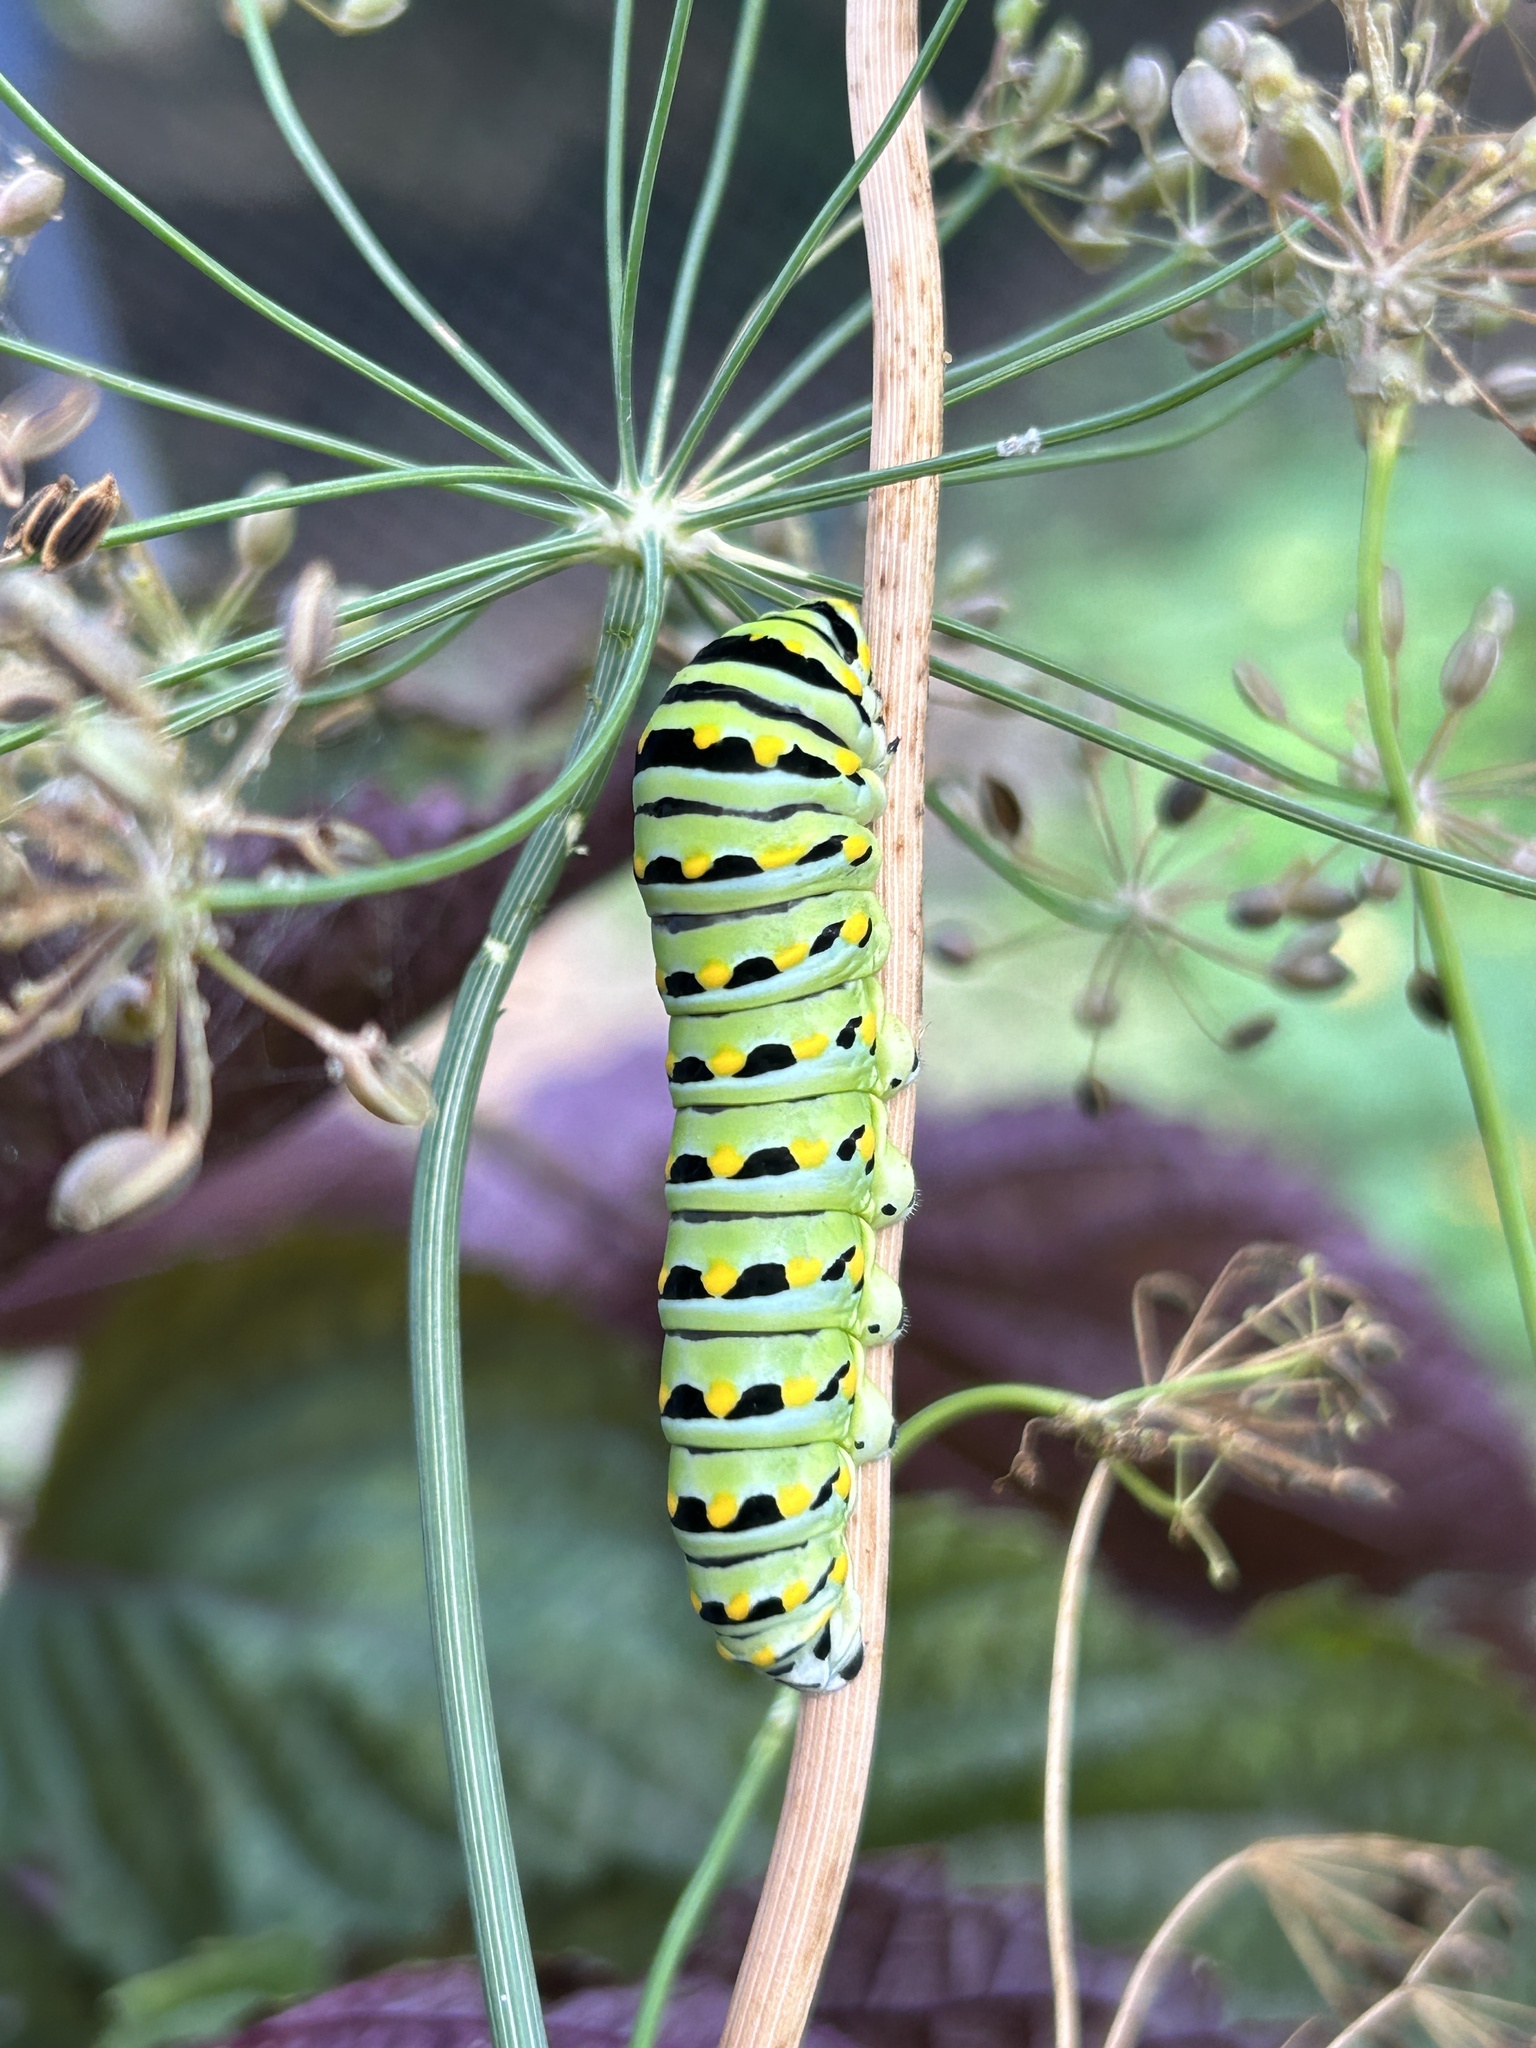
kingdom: Animalia
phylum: Arthropoda
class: Insecta
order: Lepidoptera
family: Papilionidae
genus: Papilio
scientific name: Papilio polyxenes
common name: Black swallowtail
